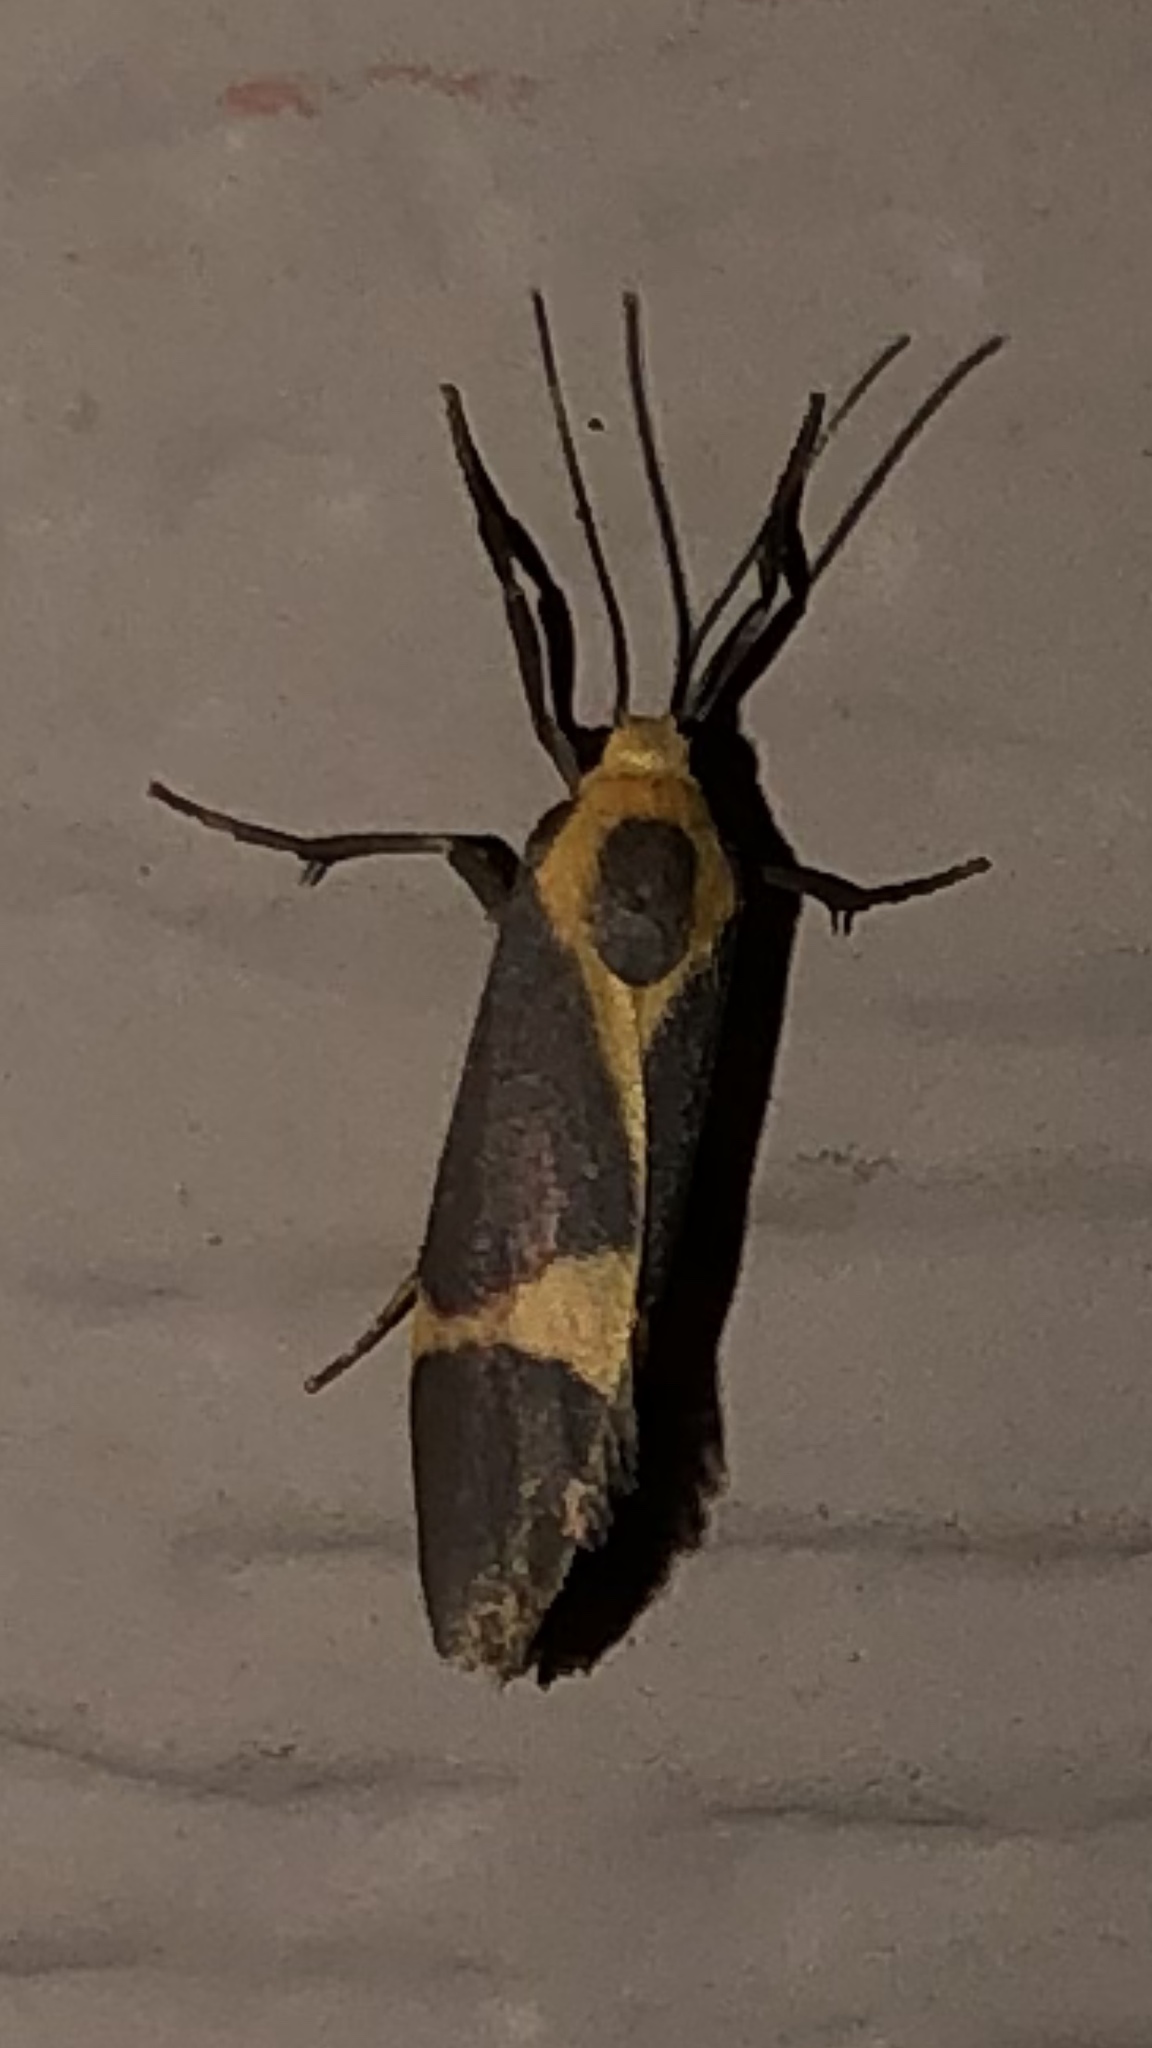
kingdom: Animalia
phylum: Arthropoda
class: Insecta
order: Lepidoptera
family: Erebidae
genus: Cisthene
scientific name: Cisthene tenuifascia
